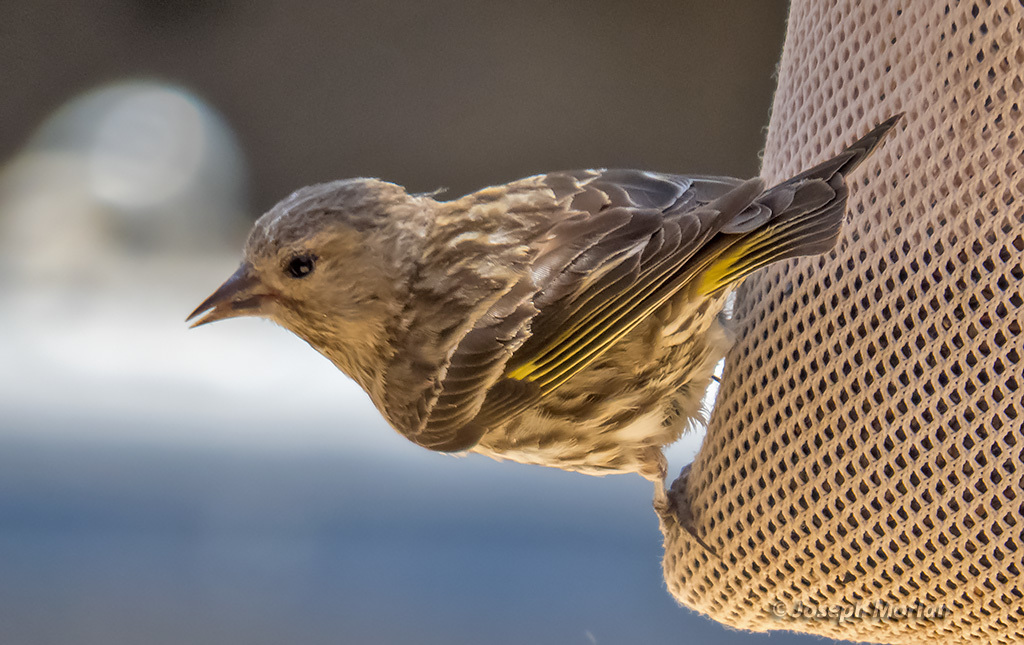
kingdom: Animalia
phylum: Chordata
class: Aves
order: Passeriformes
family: Fringillidae
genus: Spinus
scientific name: Spinus pinus
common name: Pine siskin
